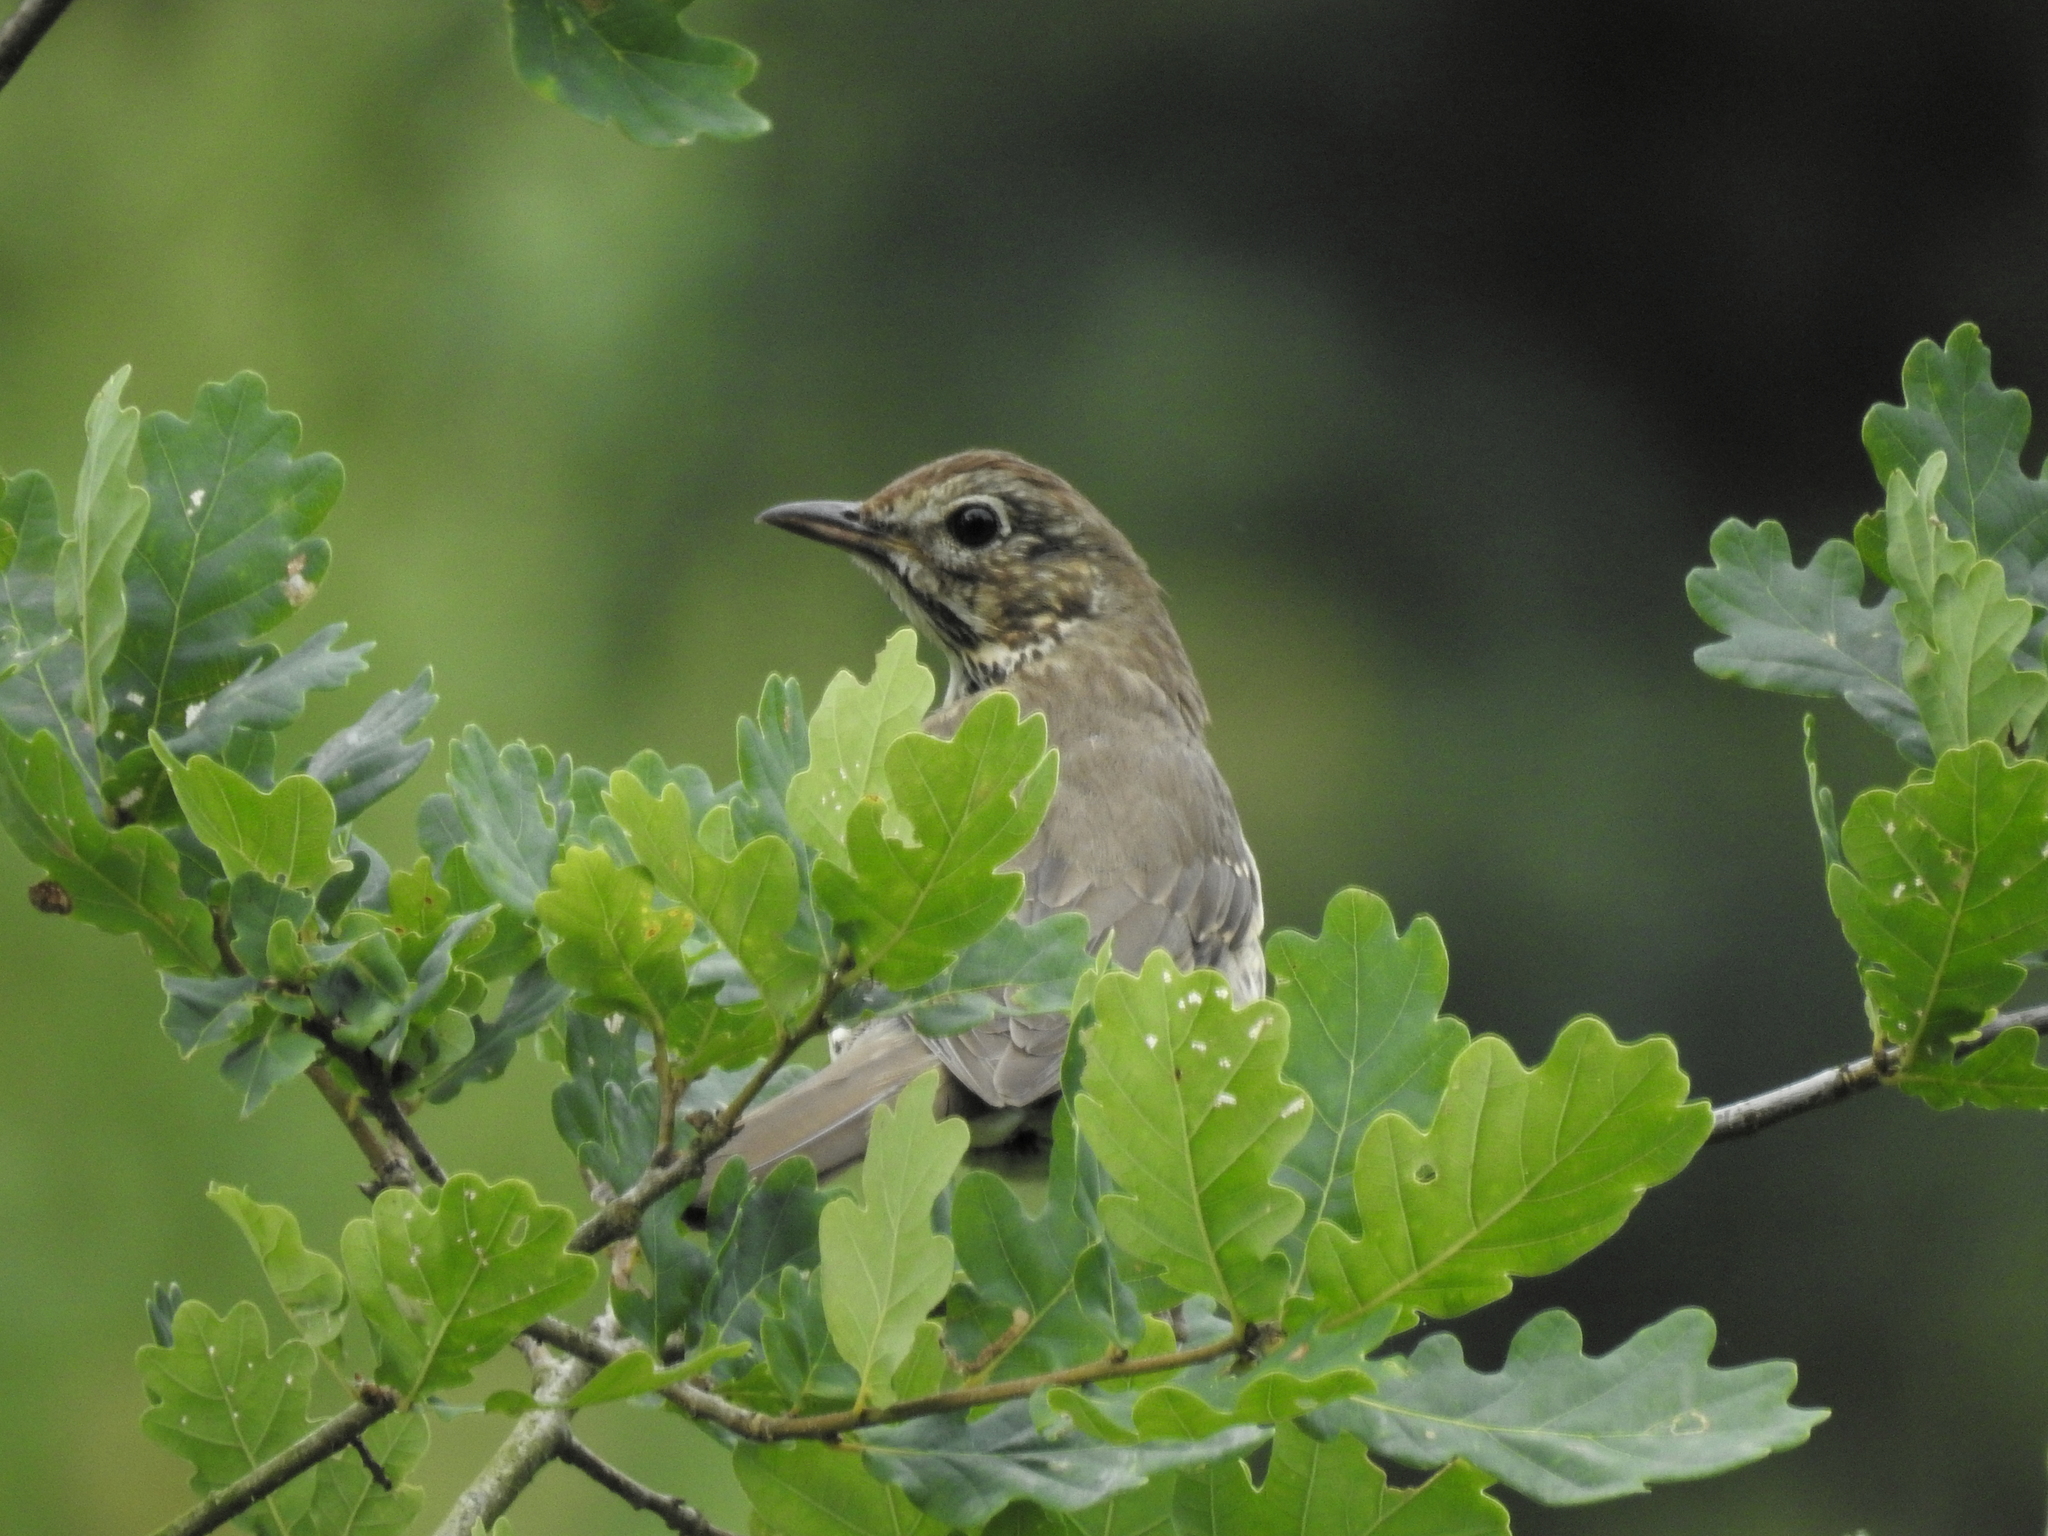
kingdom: Animalia
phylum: Chordata
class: Aves
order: Passeriformes
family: Turdidae
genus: Turdus
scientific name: Turdus philomelos
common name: Song thrush
